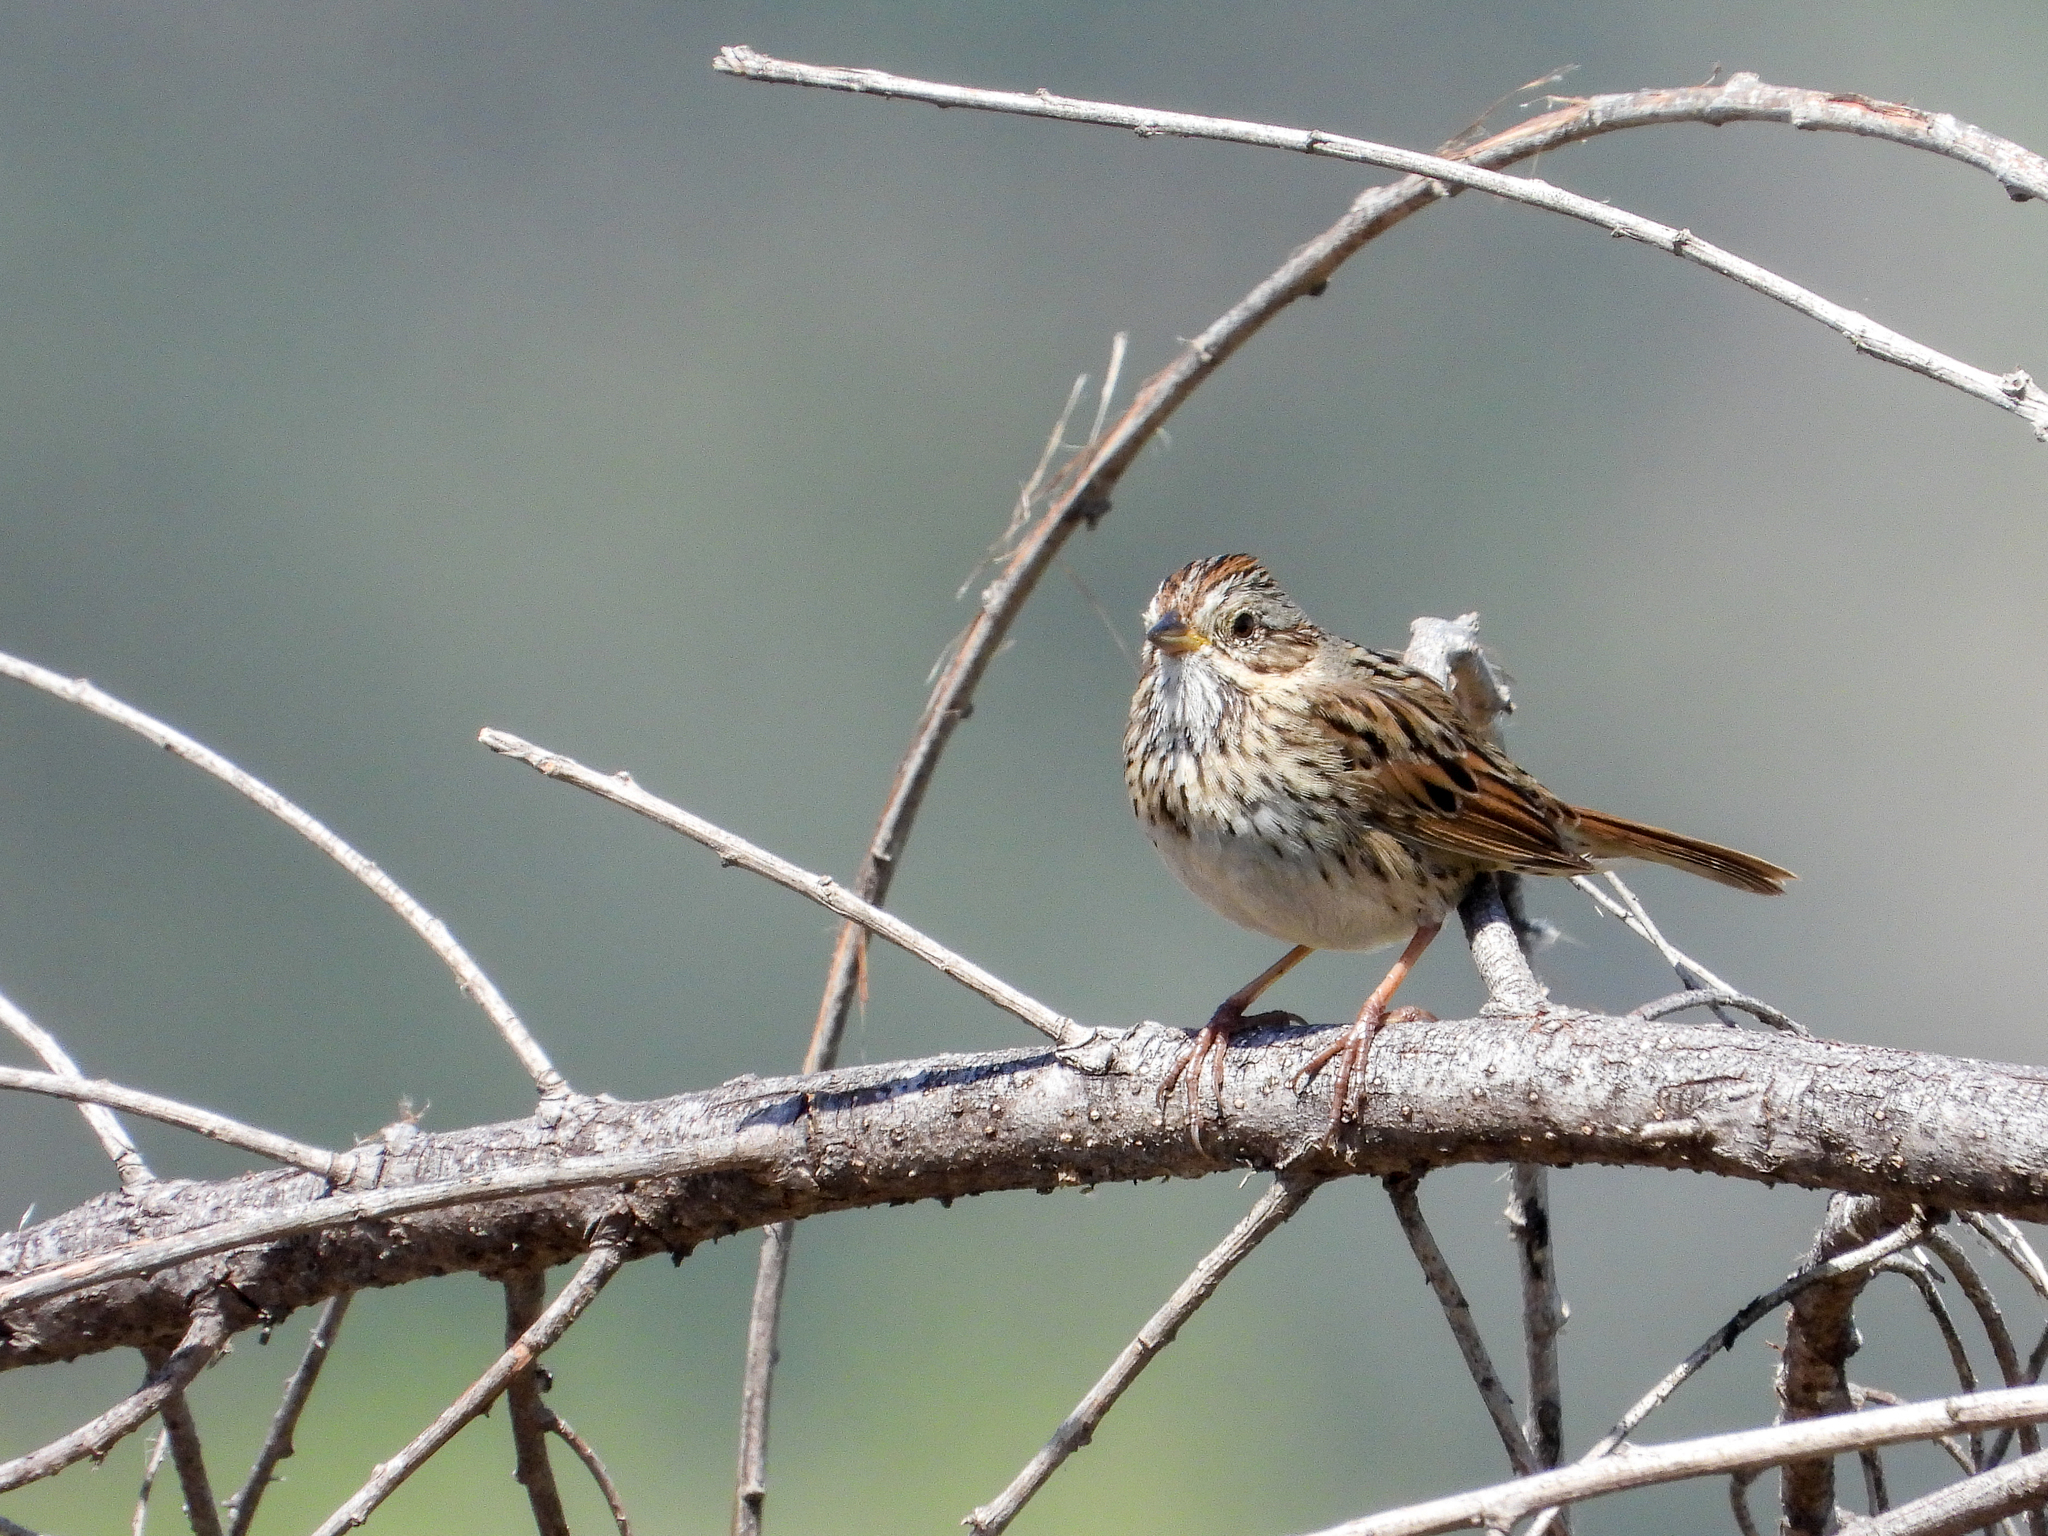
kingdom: Animalia
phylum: Chordata
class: Aves
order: Passeriformes
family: Passerellidae
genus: Melospiza
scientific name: Melospiza lincolnii
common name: Lincoln's sparrow
